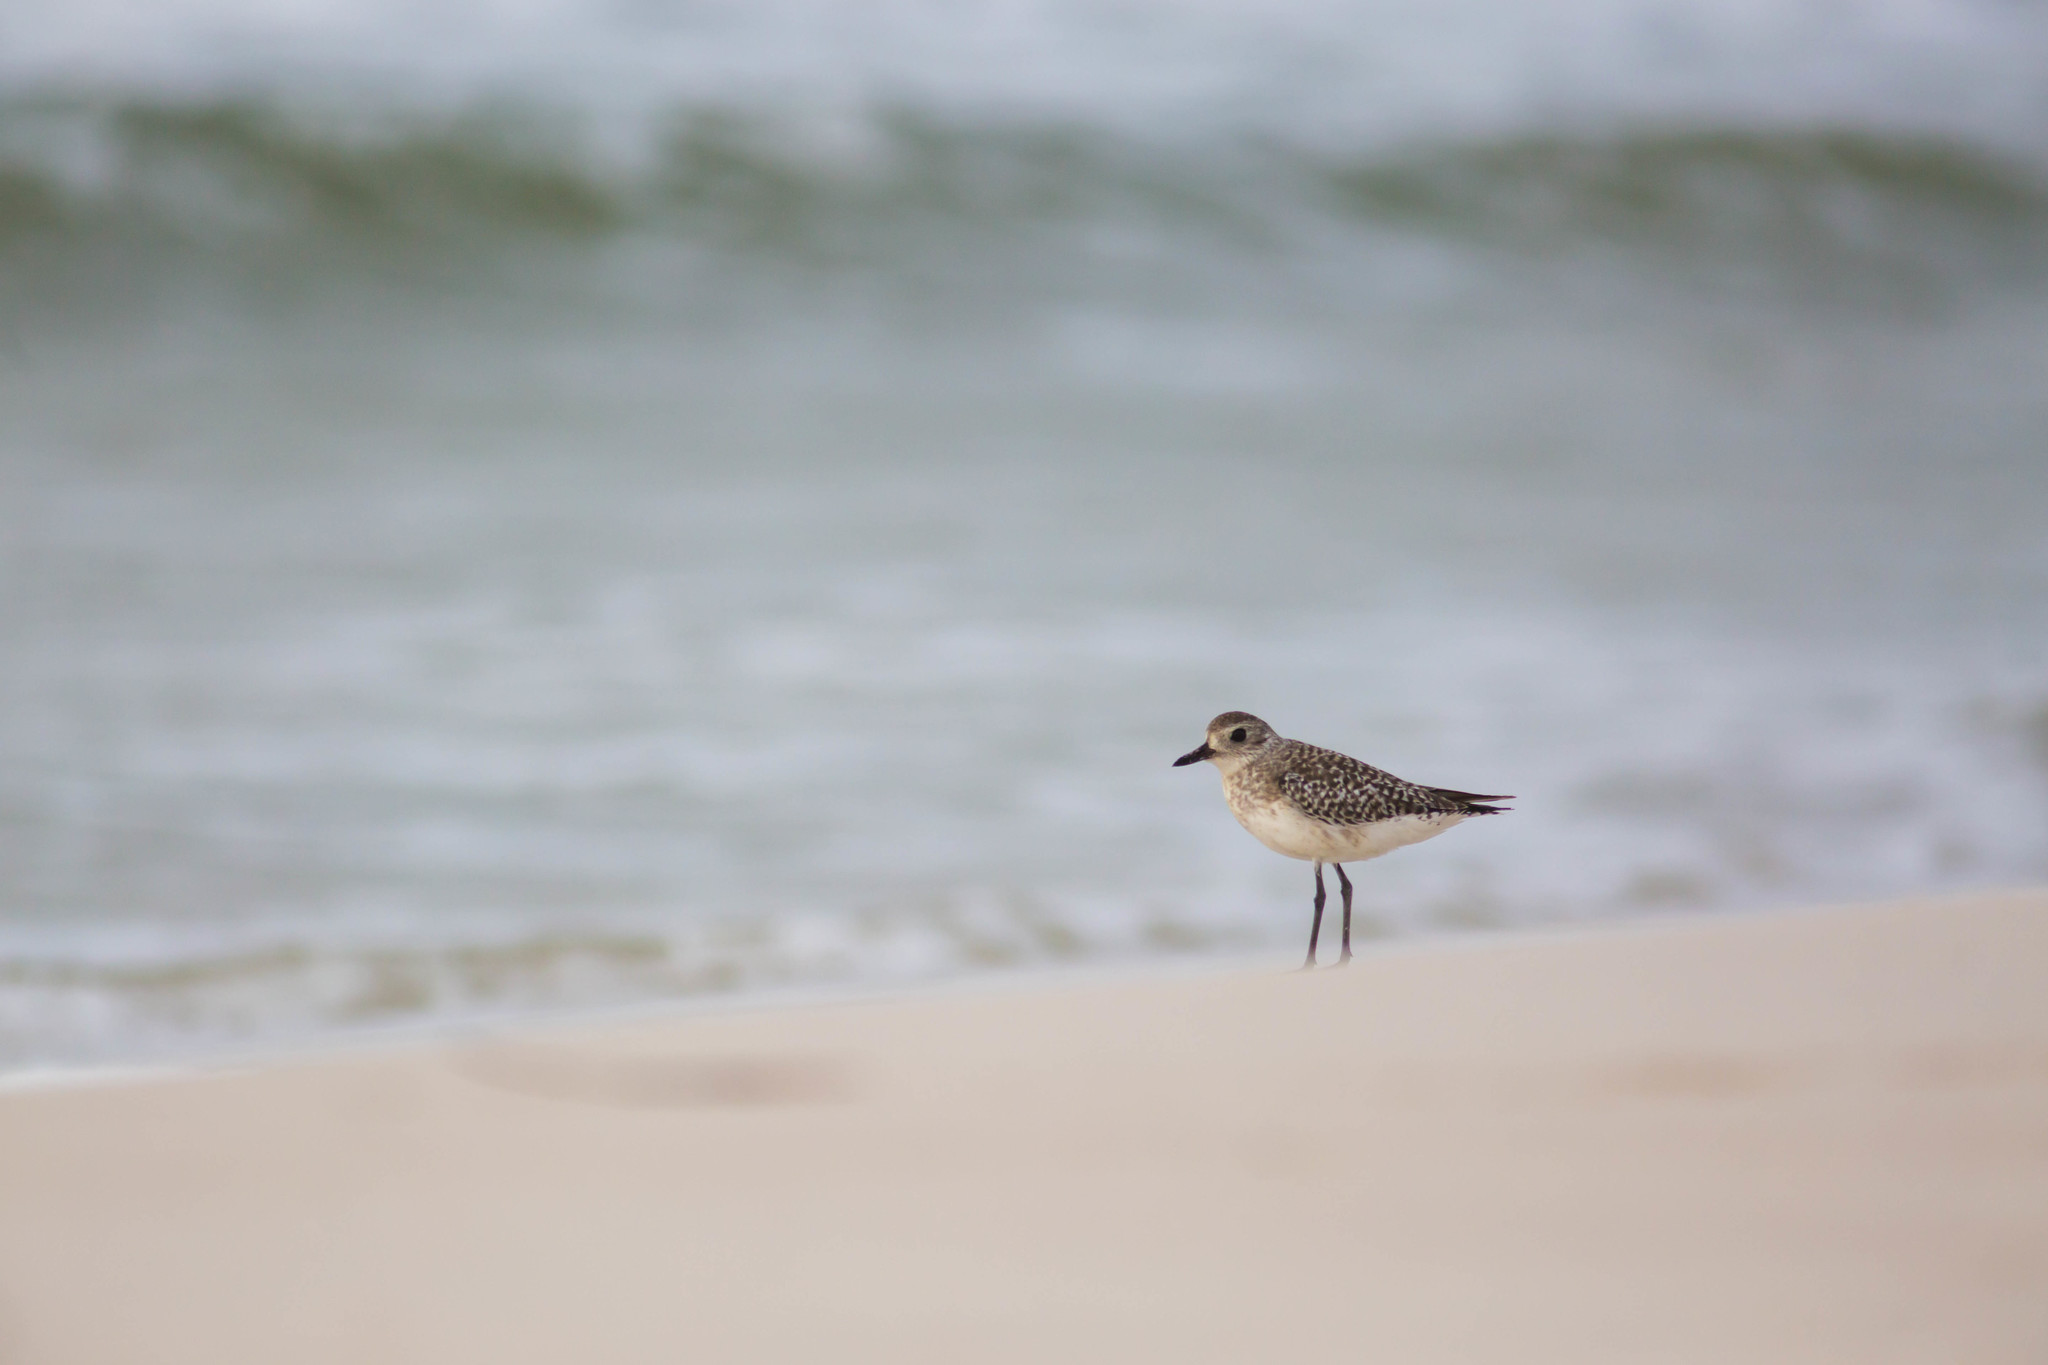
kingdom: Animalia
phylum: Chordata
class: Aves
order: Charadriiformes
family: Charadriidae
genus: Pluvialis
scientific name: Pluvialis squatarola
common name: Grey plover
